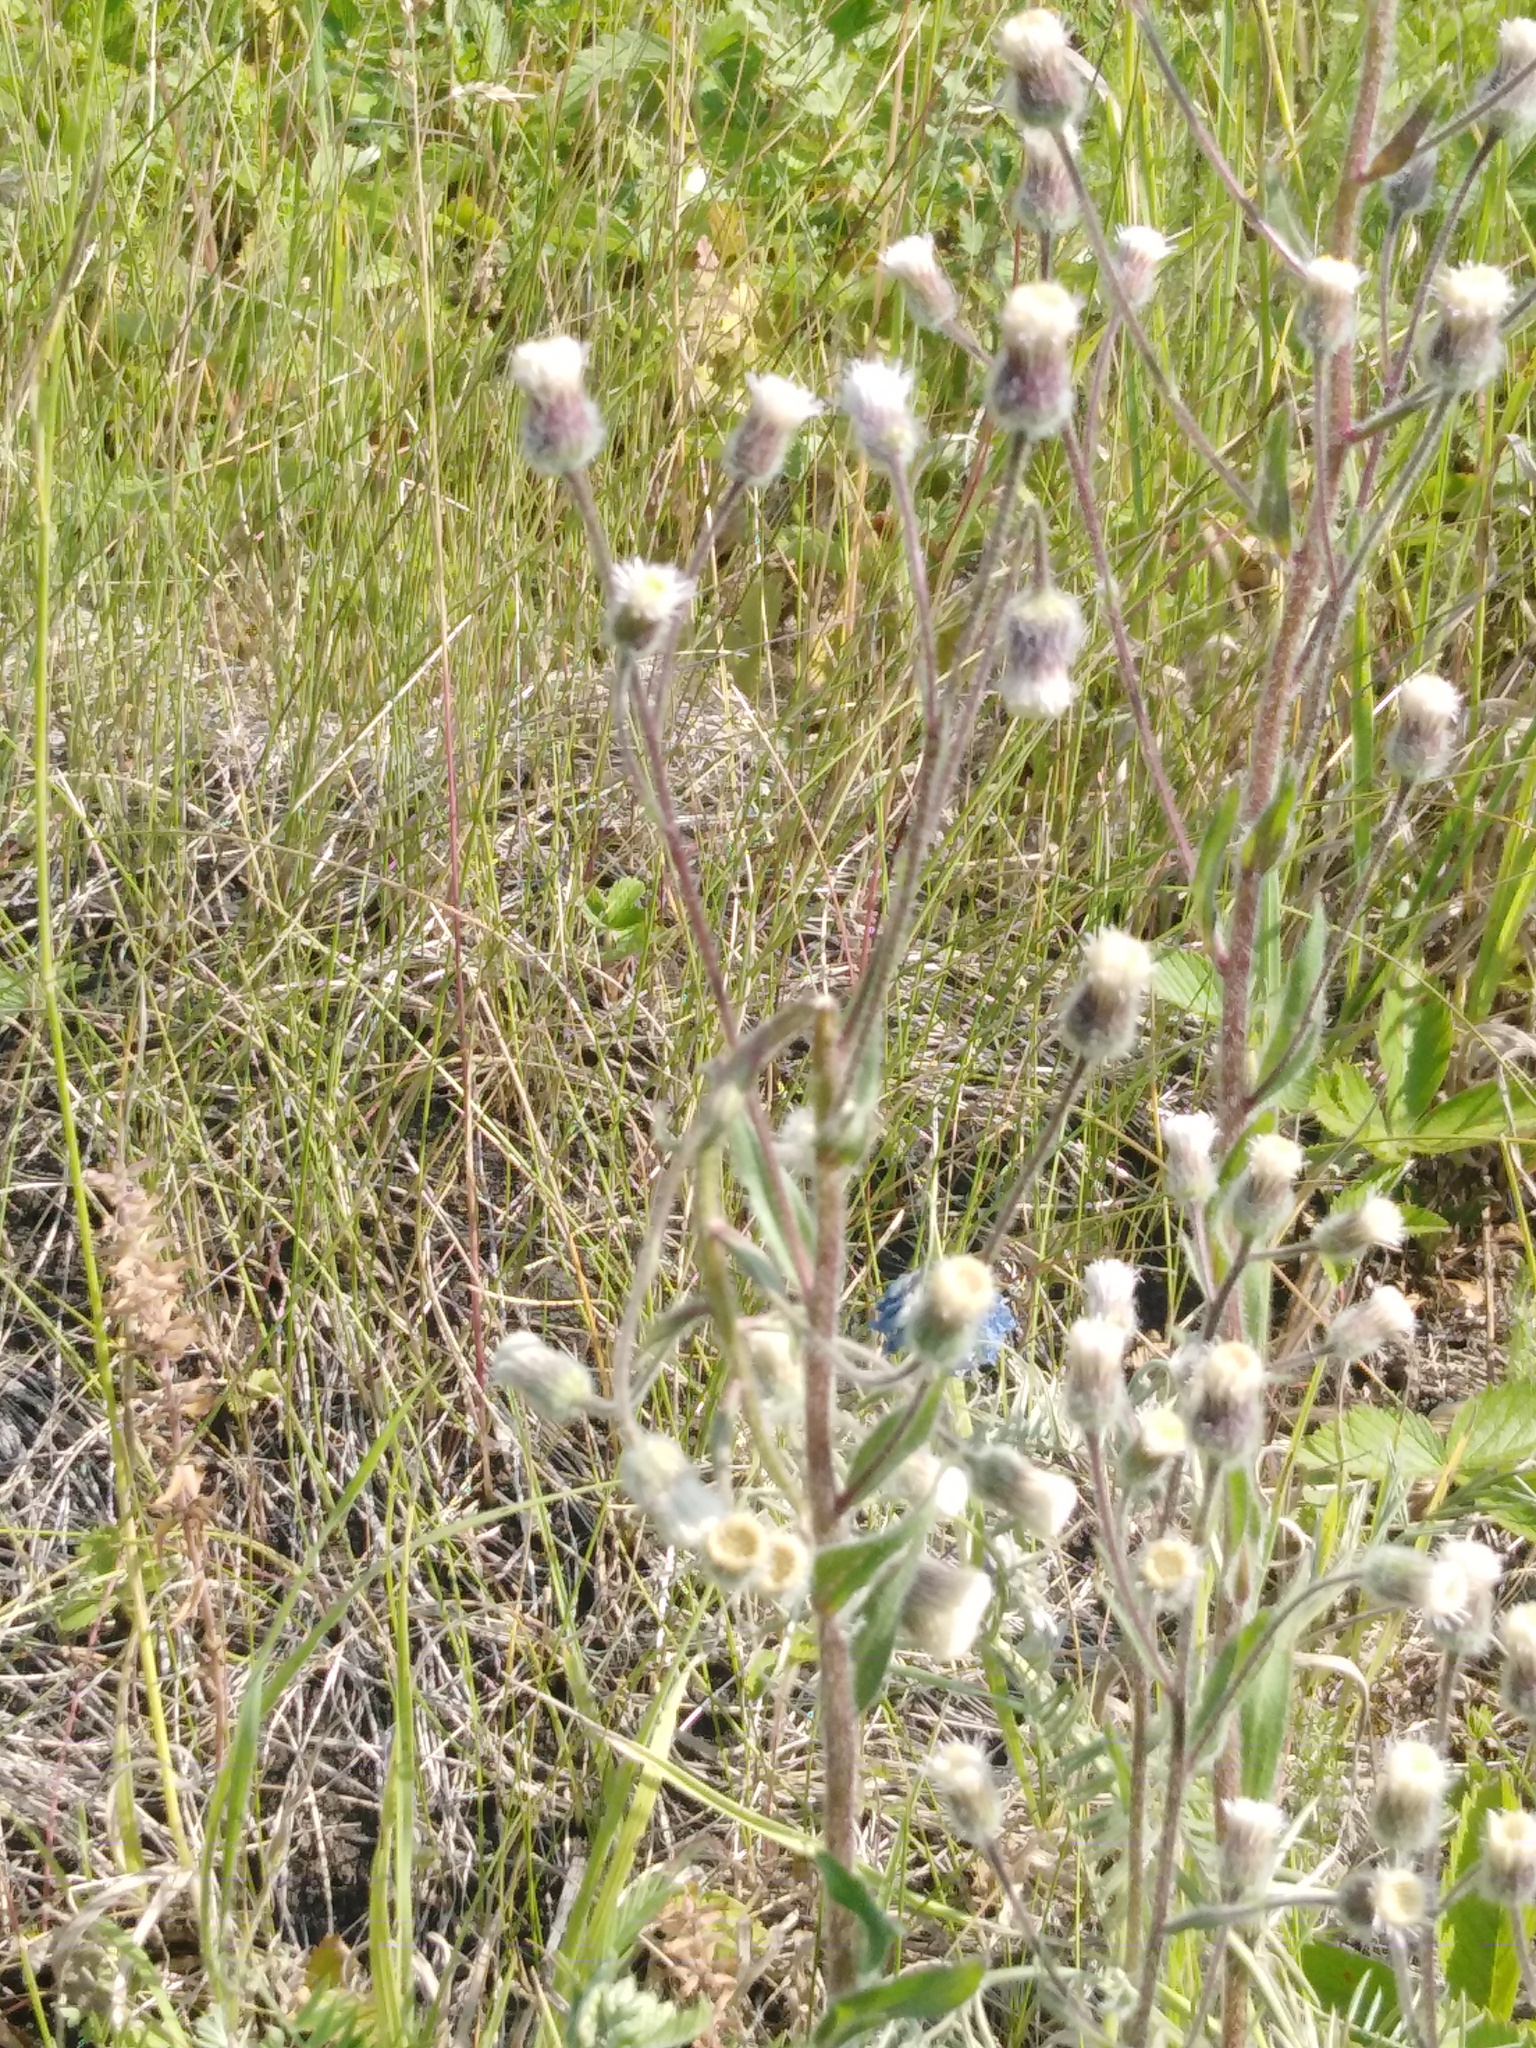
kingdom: Plantae
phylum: Tracheophyta
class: Magnoliopsida
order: Asterales
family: Asteraceae
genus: Erigeron
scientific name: Erigeron acris
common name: Blue fleabane
